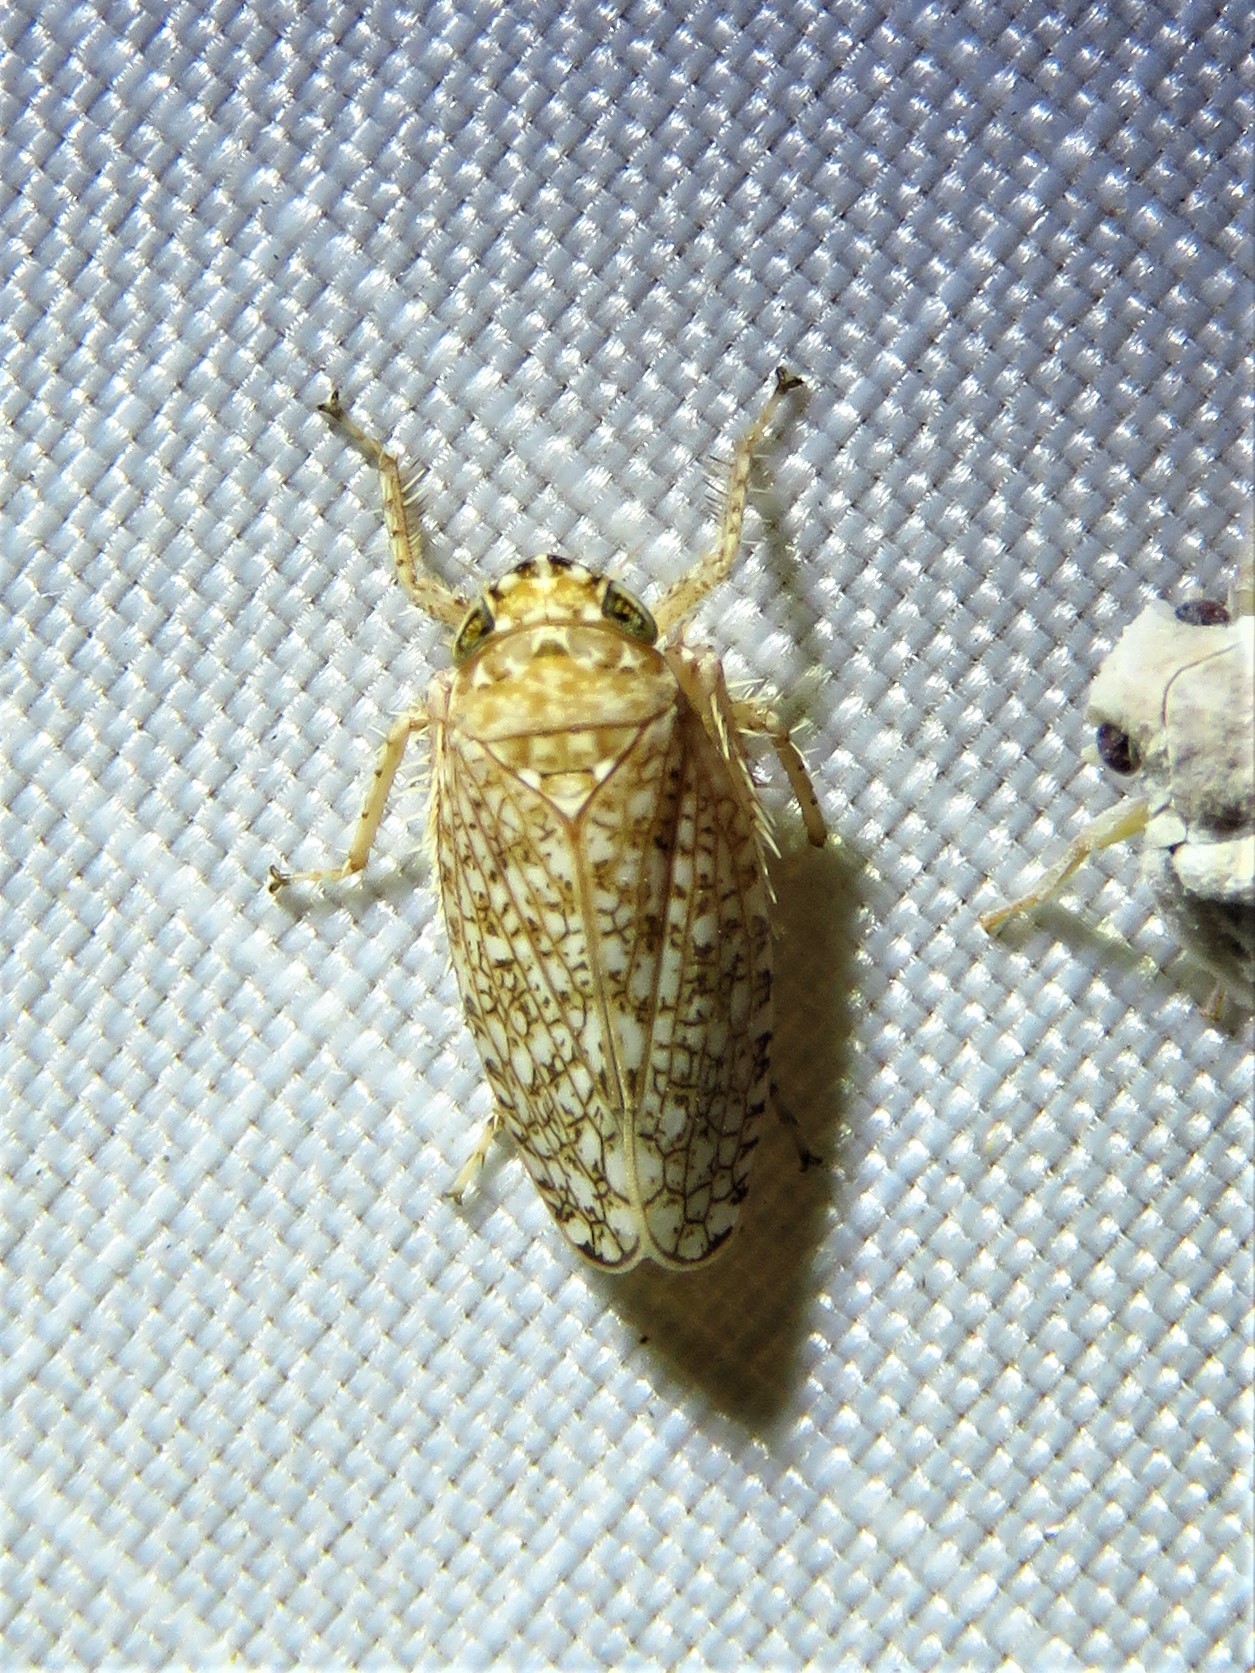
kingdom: Animalia
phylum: Arthropoda
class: Insecta
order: Hemiptera
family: Cicadellidae
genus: Texananus
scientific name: Texananus areolatus
